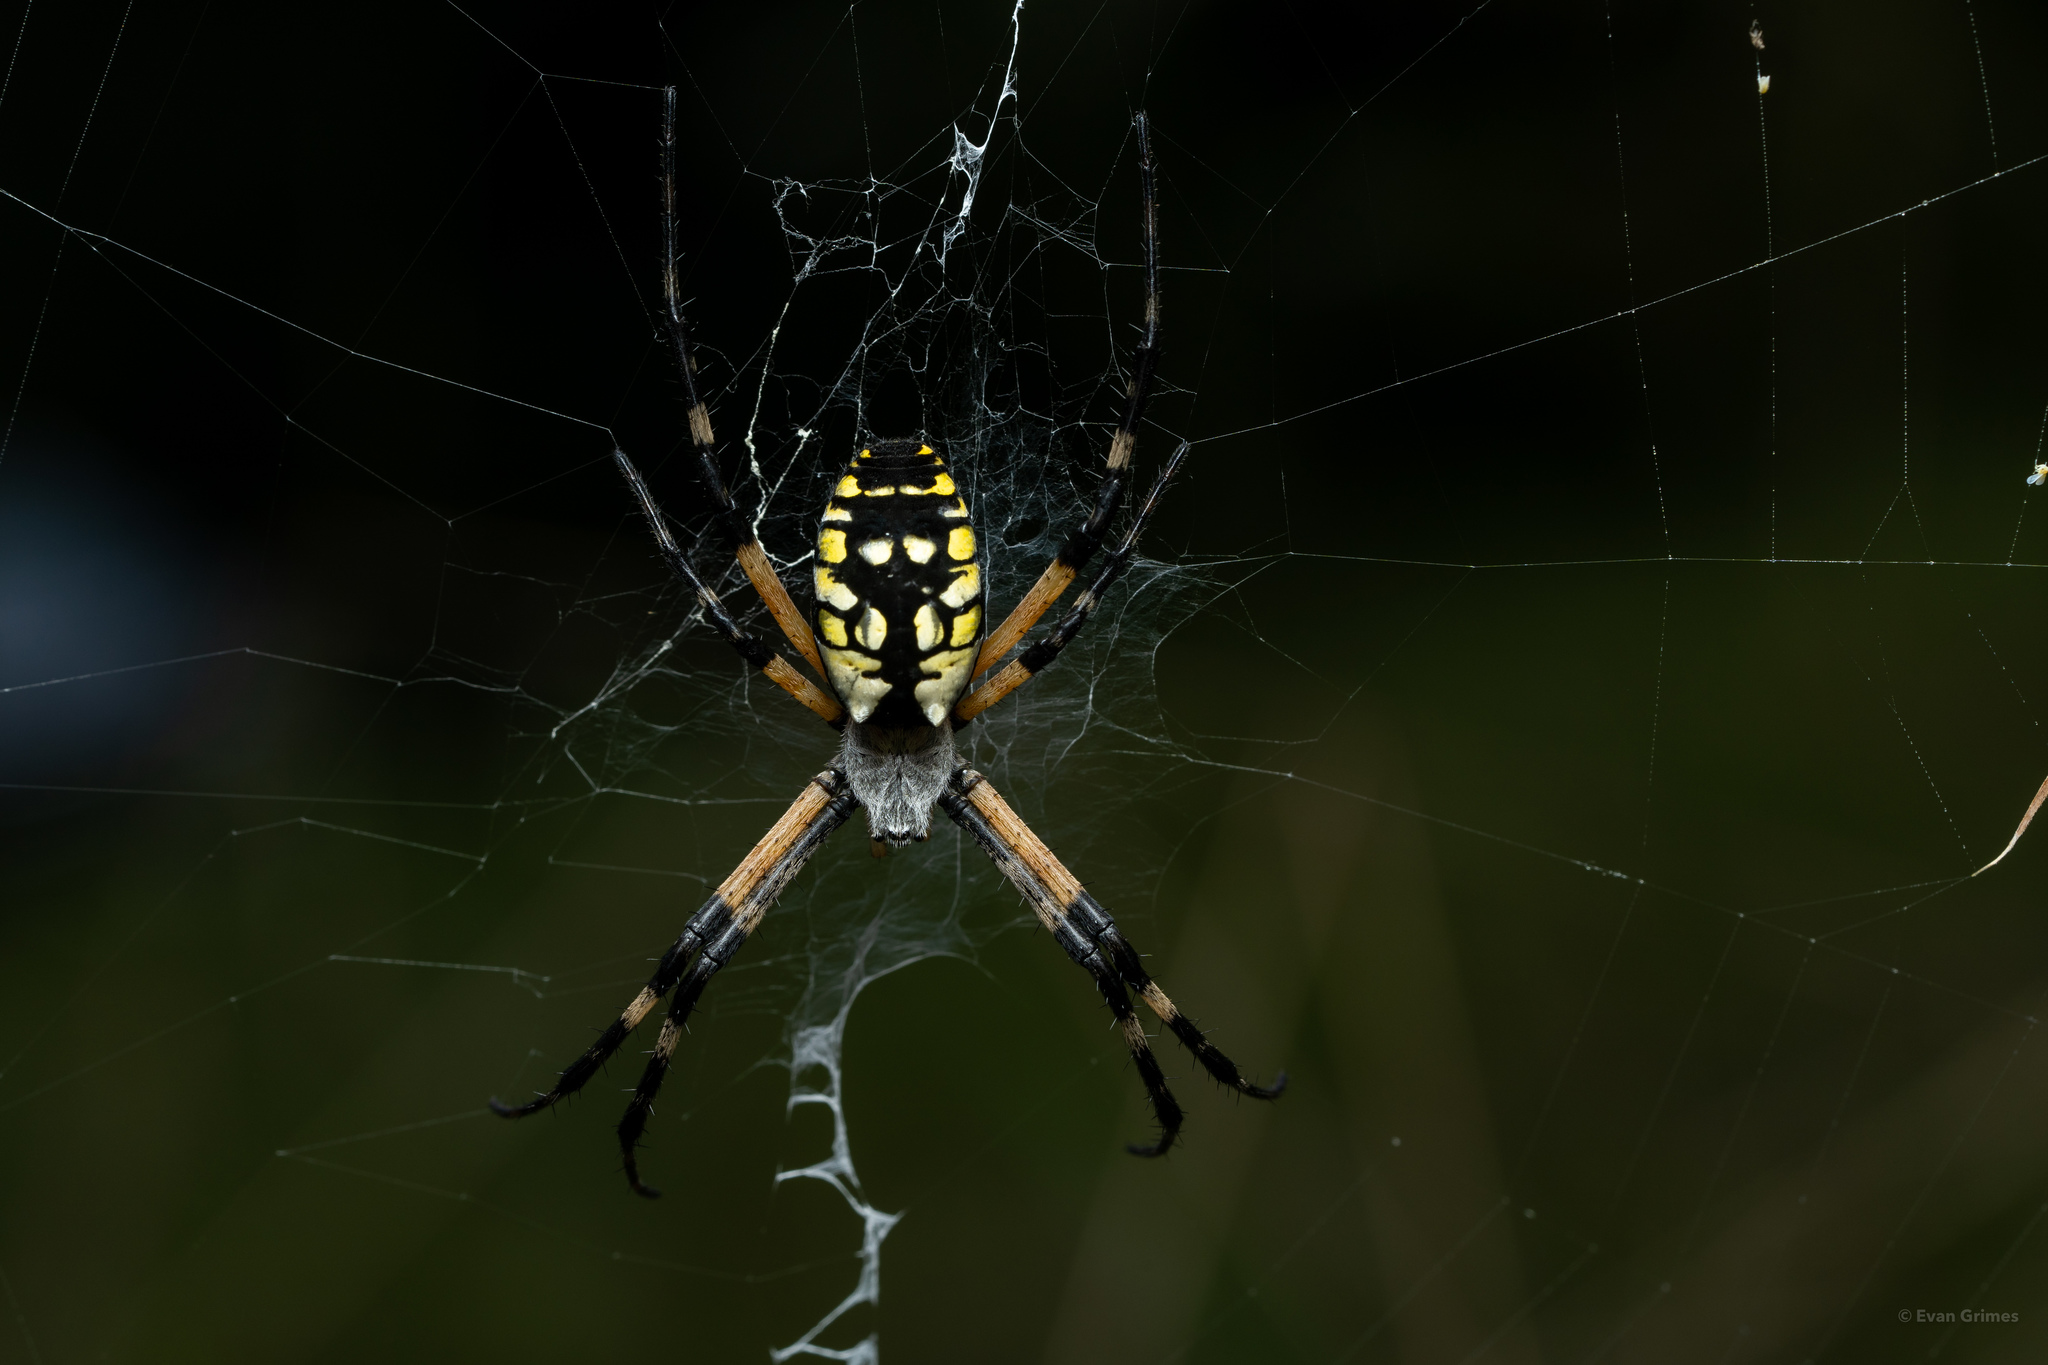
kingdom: Animalia
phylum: Arthropoda
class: Arachnida
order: Araneae
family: Araneidae
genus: Argiope
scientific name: Argiope aurantia
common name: Orb weavers
